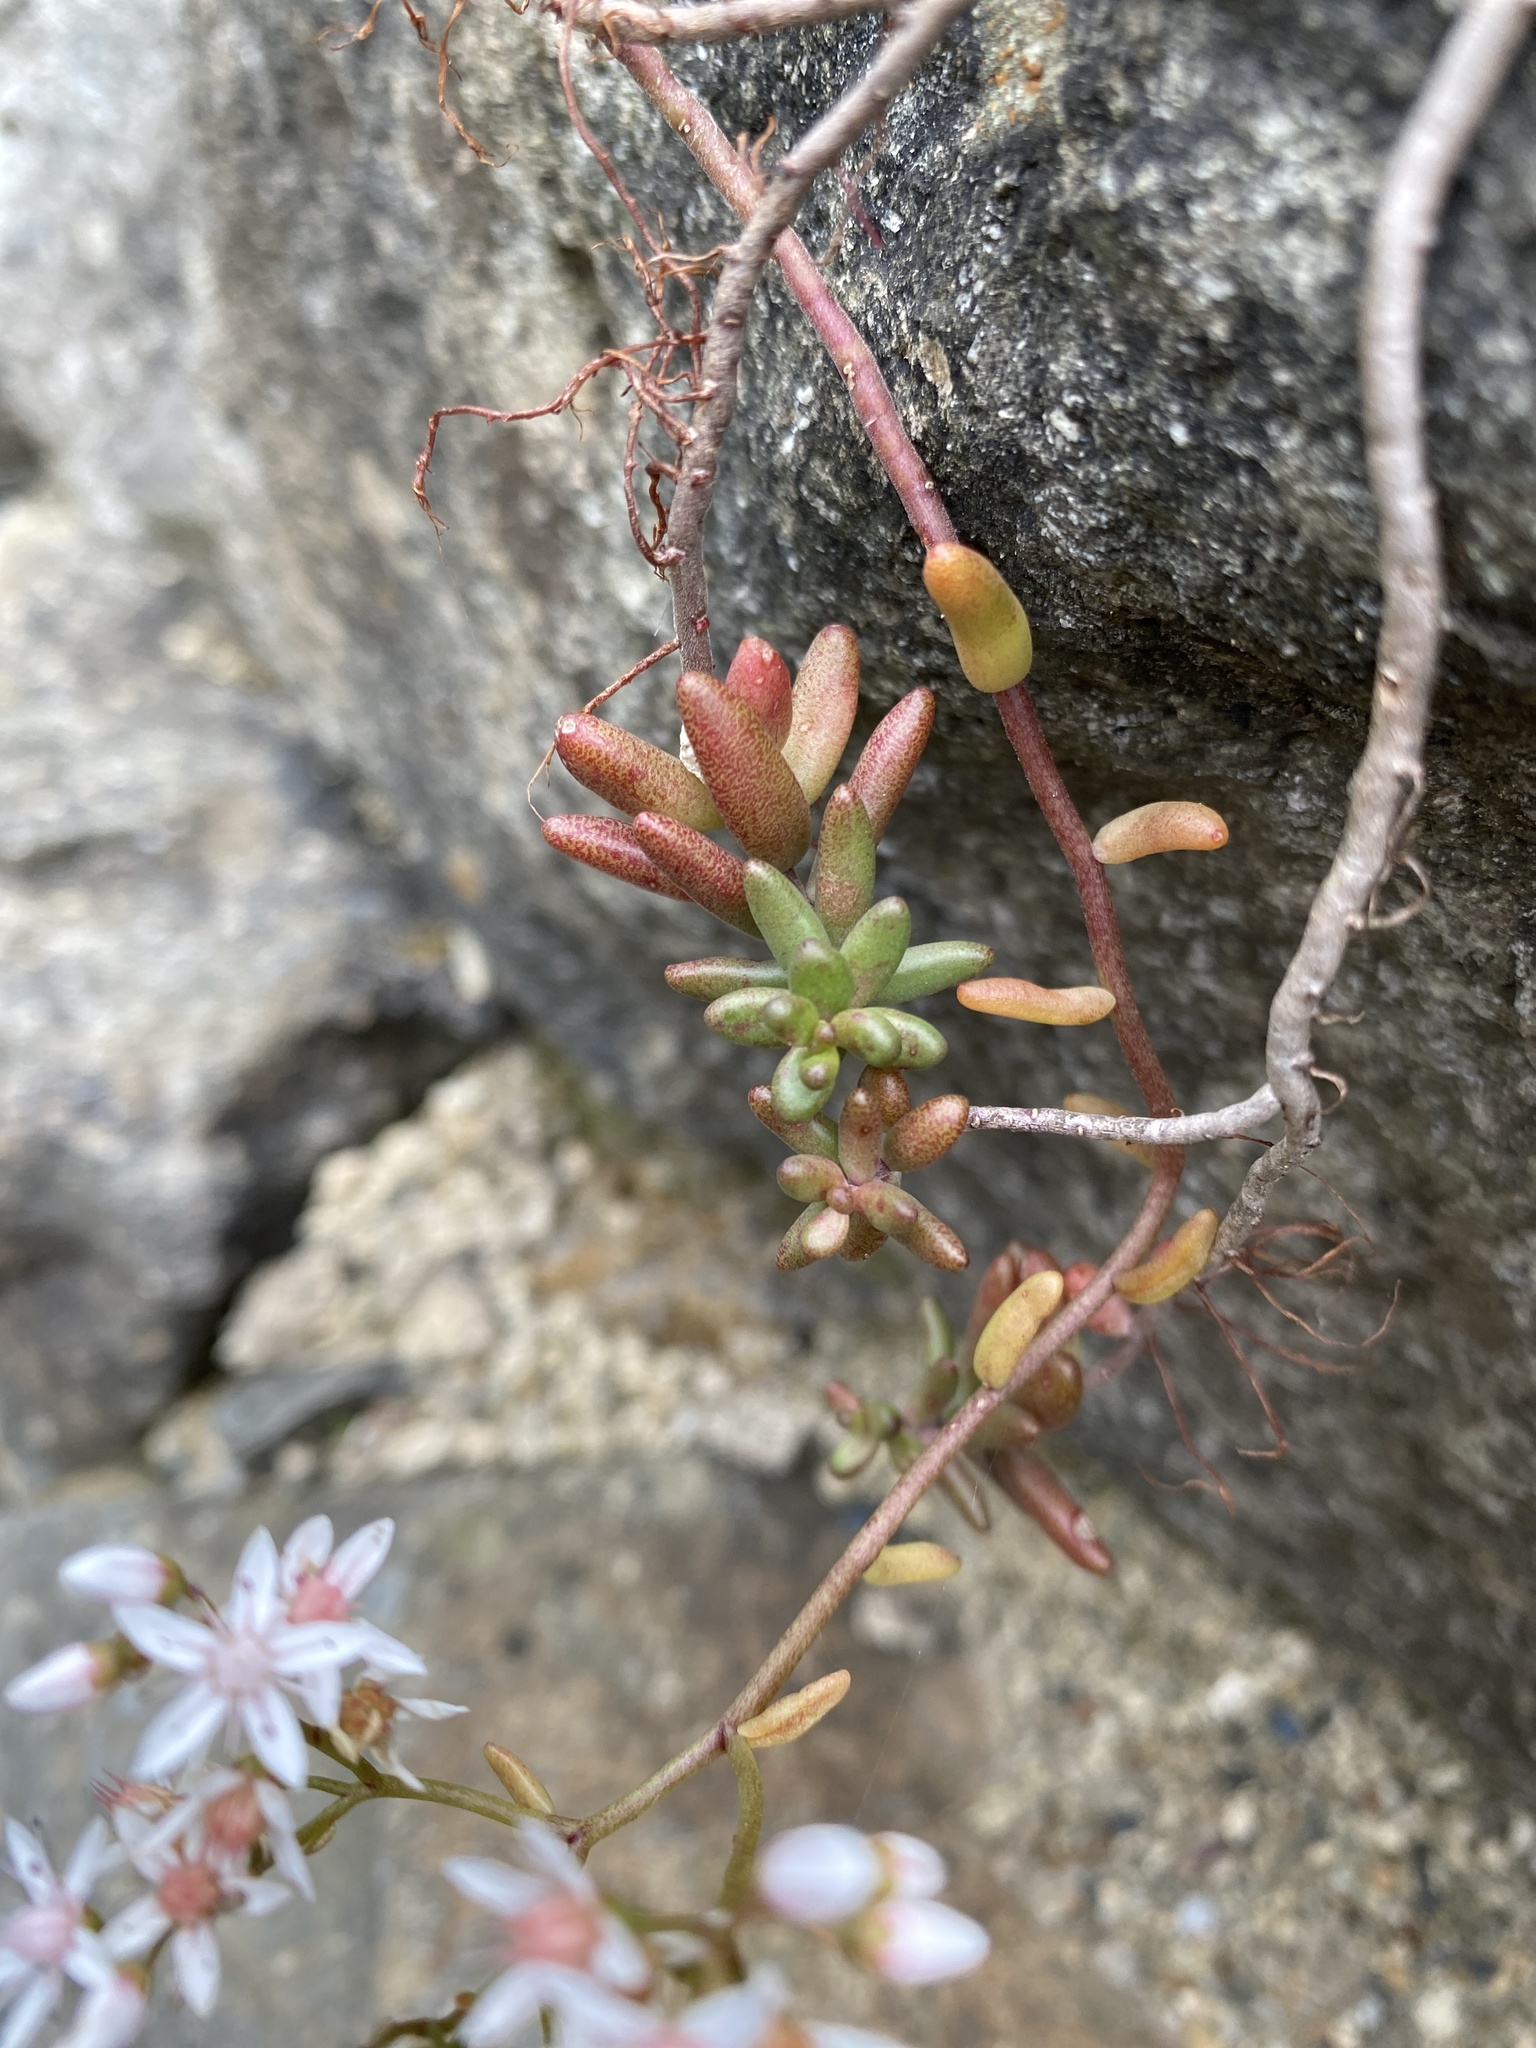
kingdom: Plantae
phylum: Tracheophyta
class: Magnoliopsida
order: Saxifragales
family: Crassulaceae
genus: Sedum
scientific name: Sedum album
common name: White stonecrop
